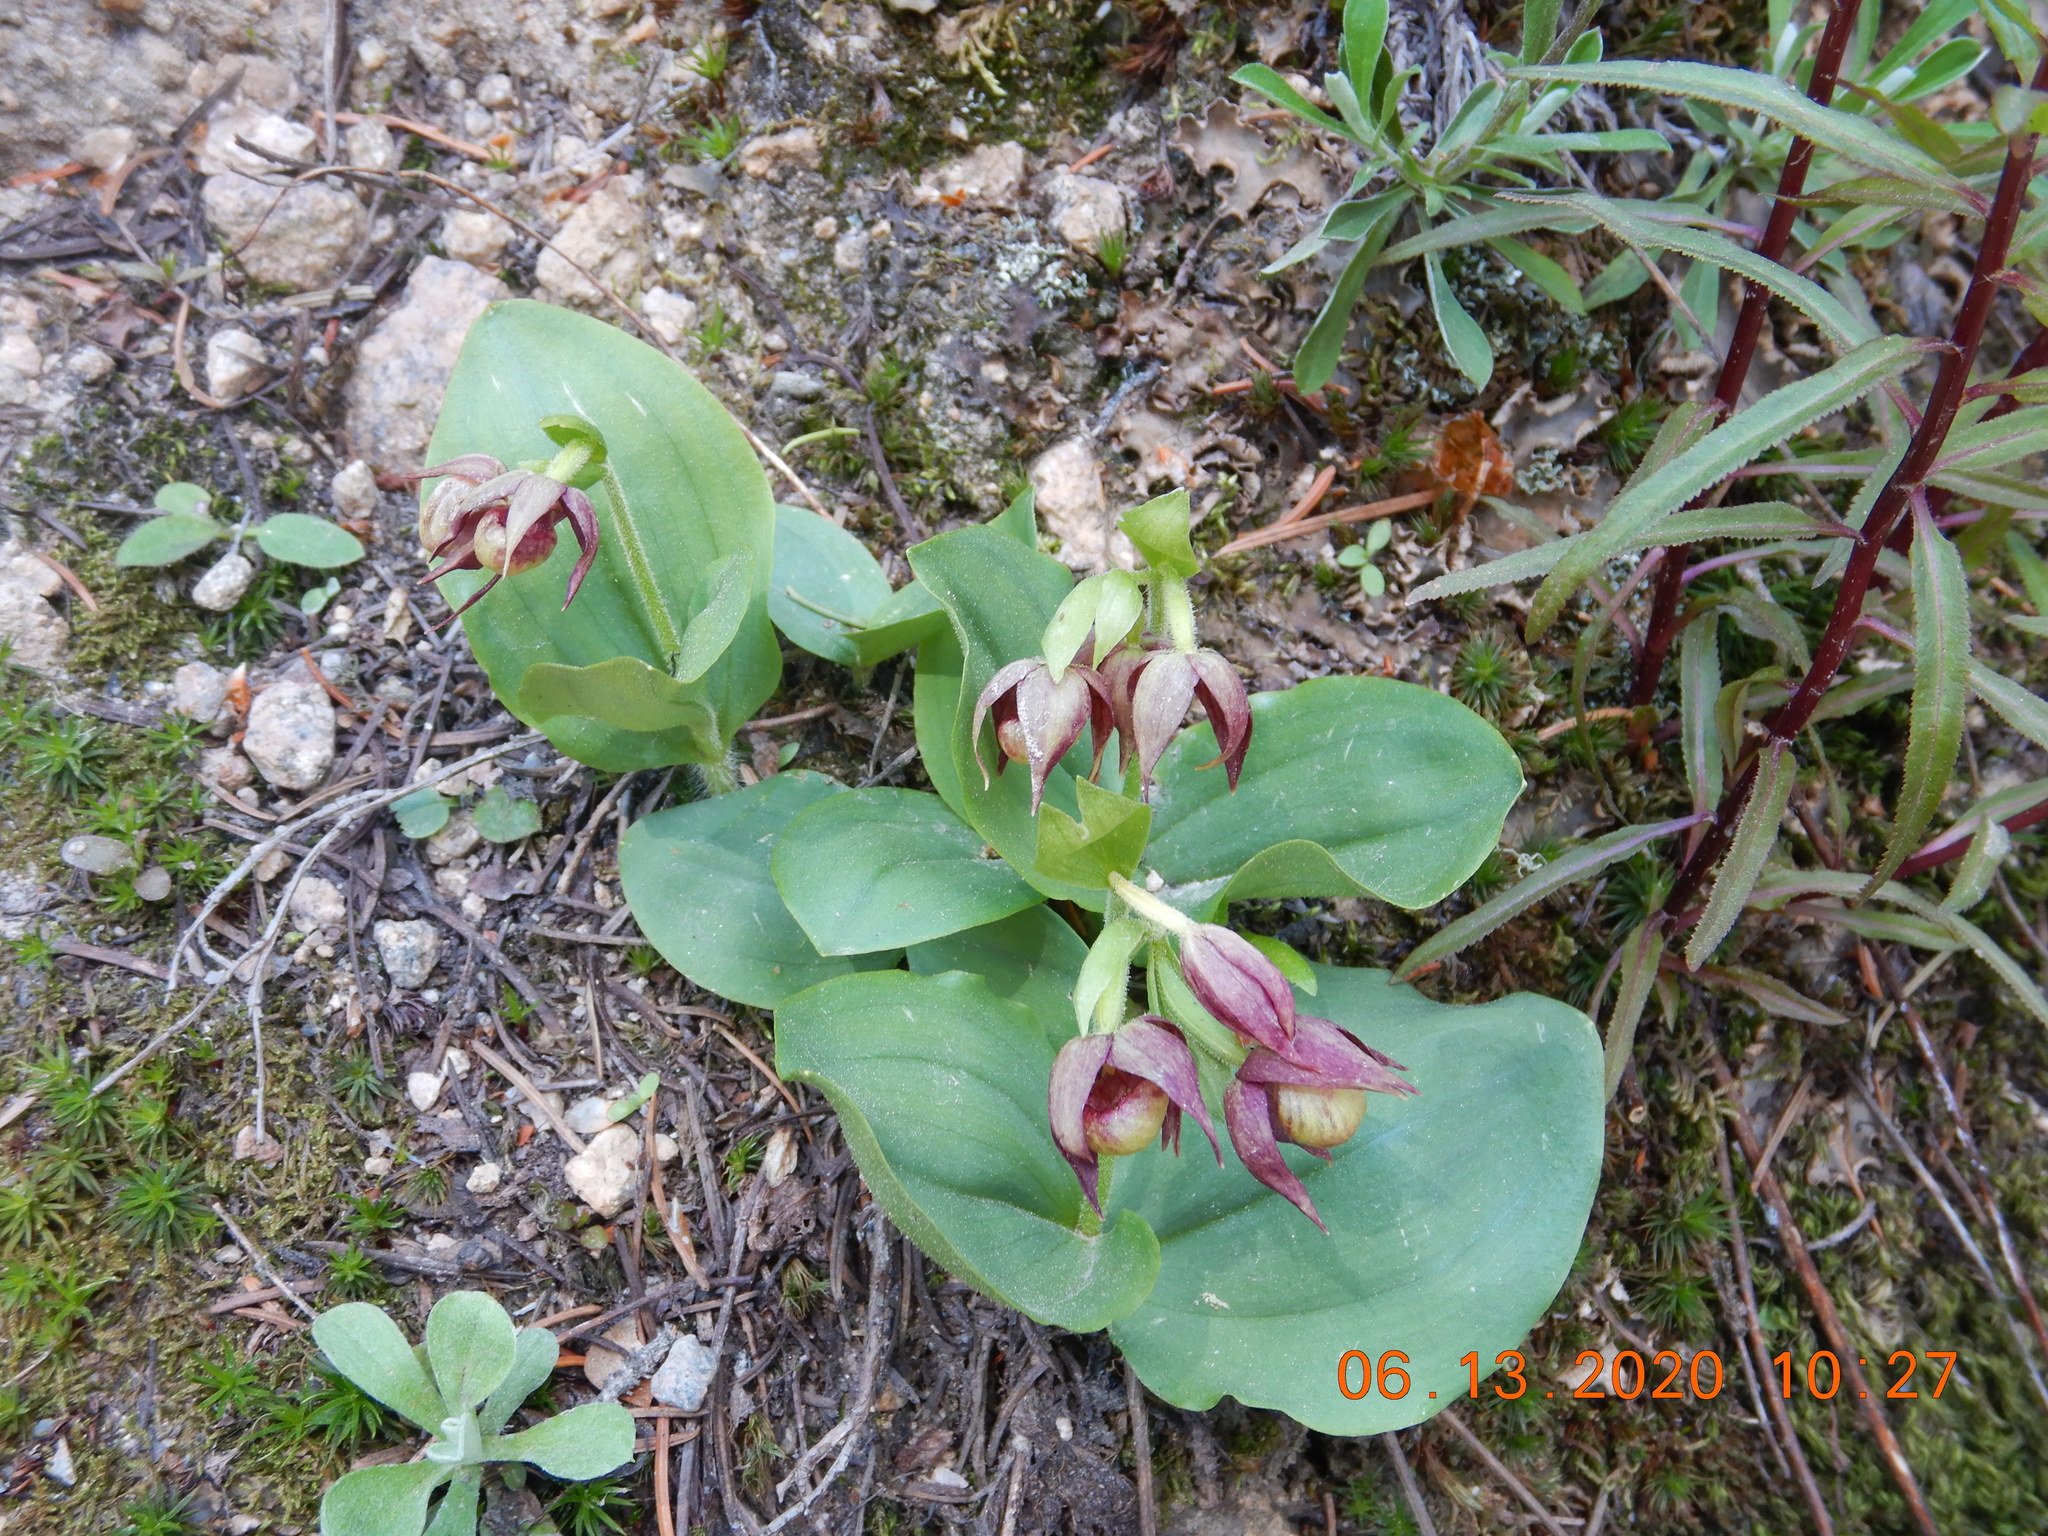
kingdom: Plantae
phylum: Tracheophyta
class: Liliopsida
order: Asparagales
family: Orchidaceae
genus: Cypripedium
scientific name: Cypripedium fasciculatum
